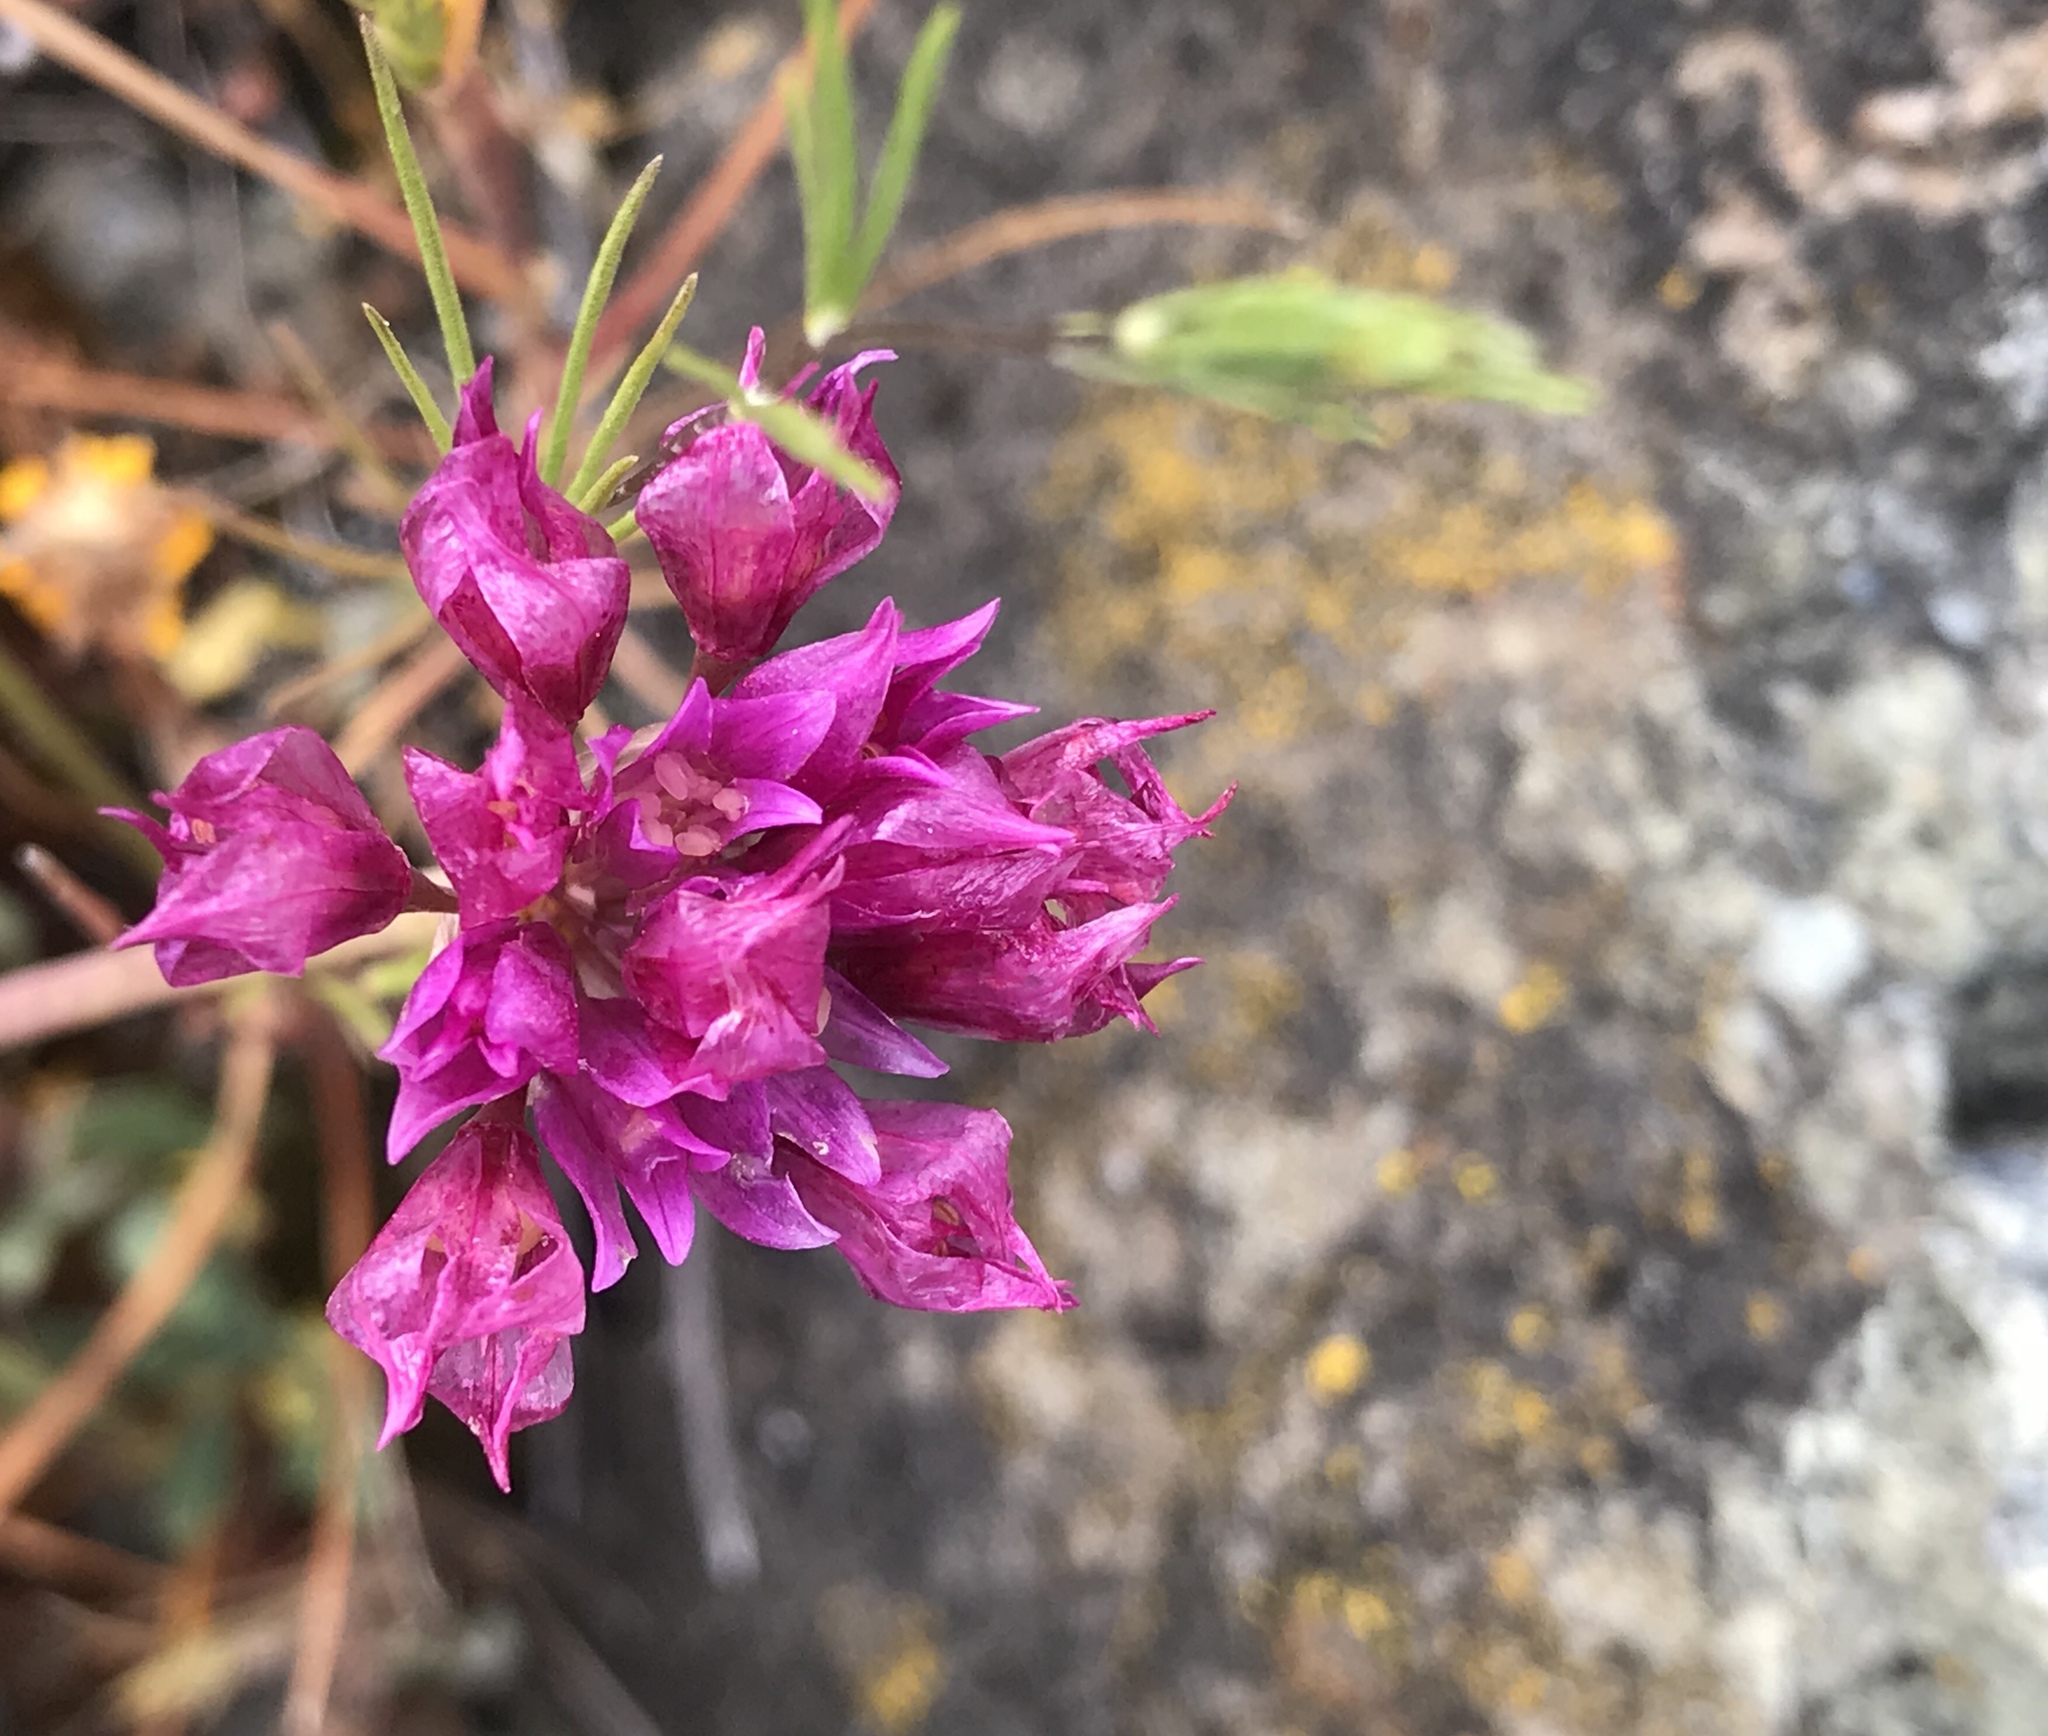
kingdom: Plantae
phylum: Tracheophyta
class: Liliopsida
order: Asparagales
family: Amaryllidaceae
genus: Allium
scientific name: Allium serra
